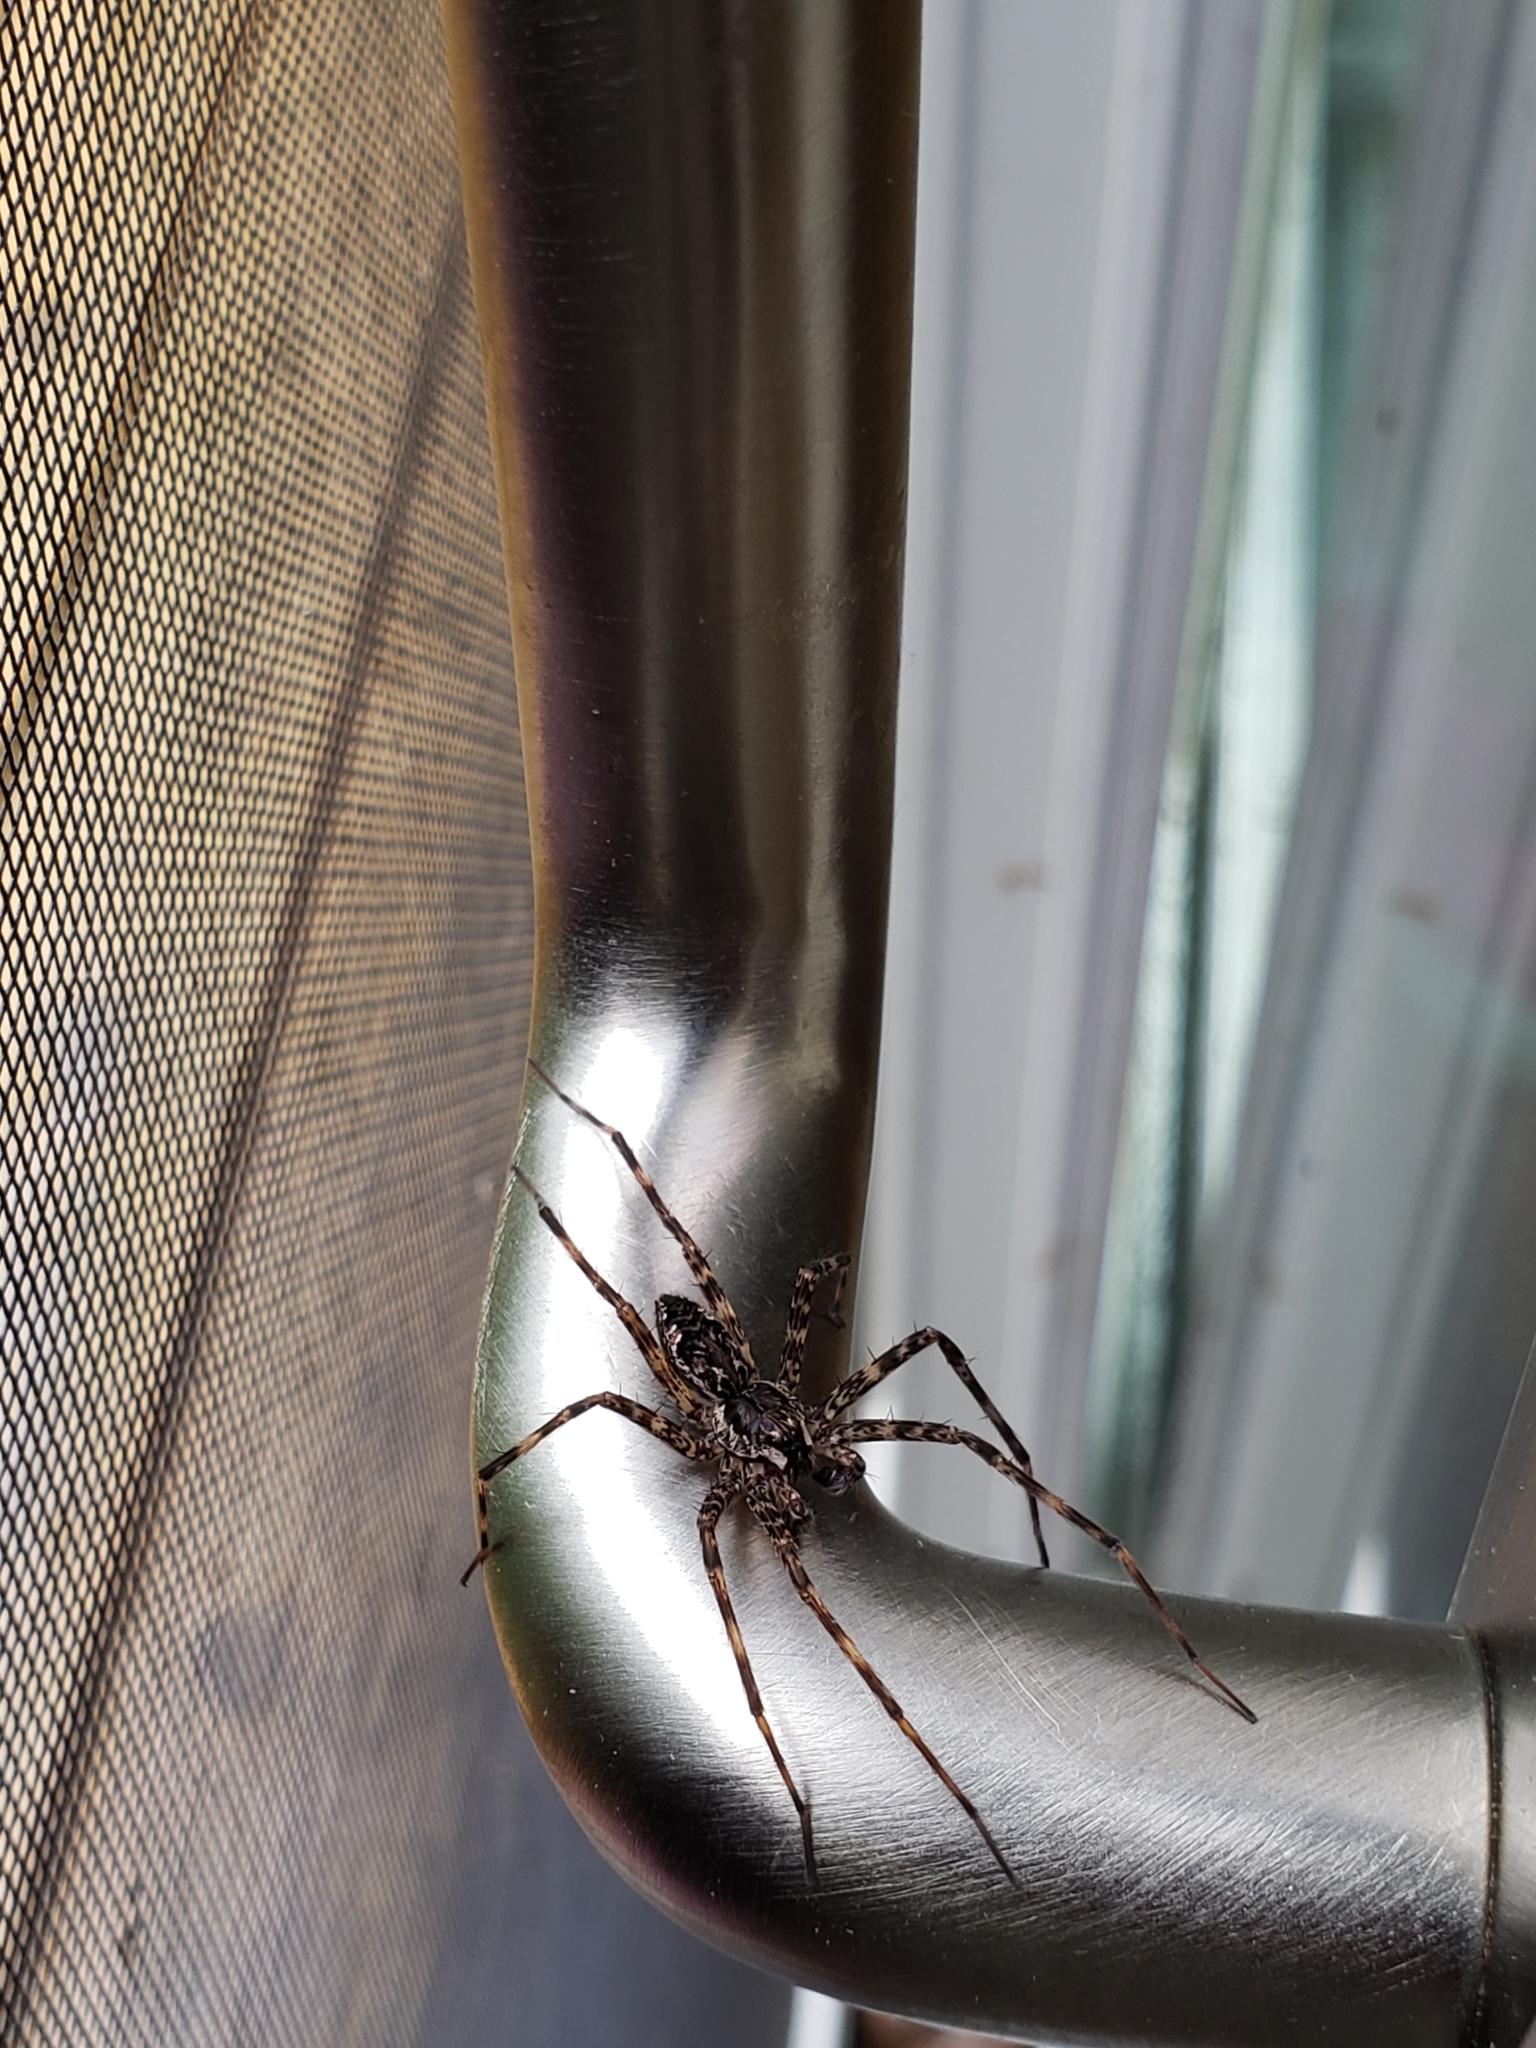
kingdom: Animalia
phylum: Arthropoda
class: Arachnida
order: Araneae
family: Pisauridae
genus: Dolomedes
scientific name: Dolomedes tenebrosus
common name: Dark fishing spider
